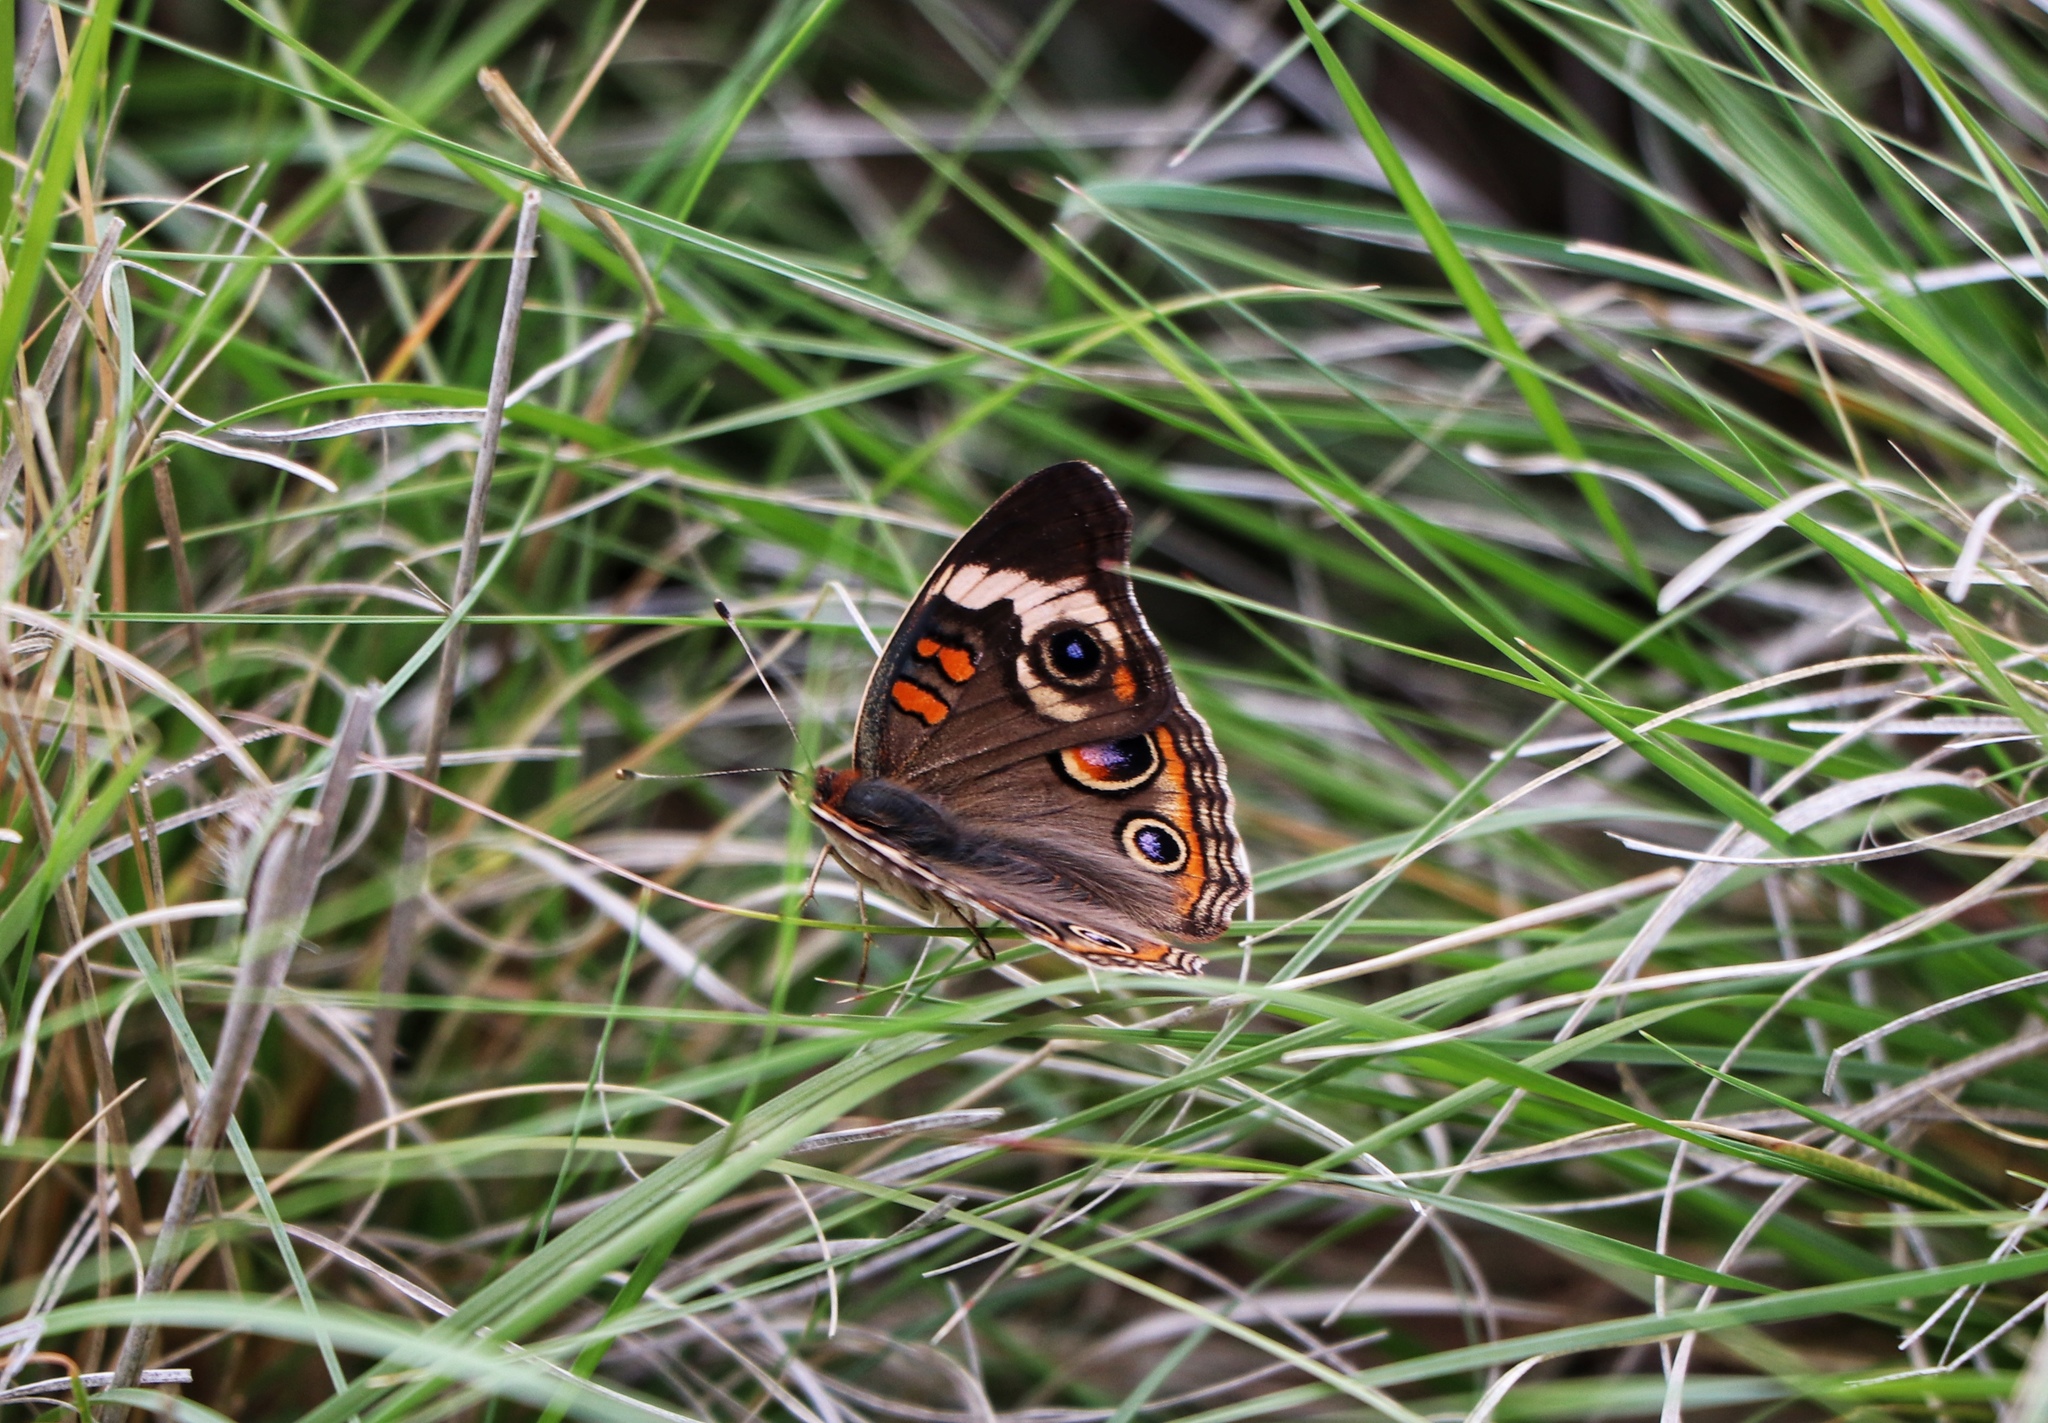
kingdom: Animalia
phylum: Arthropoda
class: Insecta
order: Lepidoptera
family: Nymphalidae
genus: Junonia
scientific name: Junonia coenia
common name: Common buckeye
